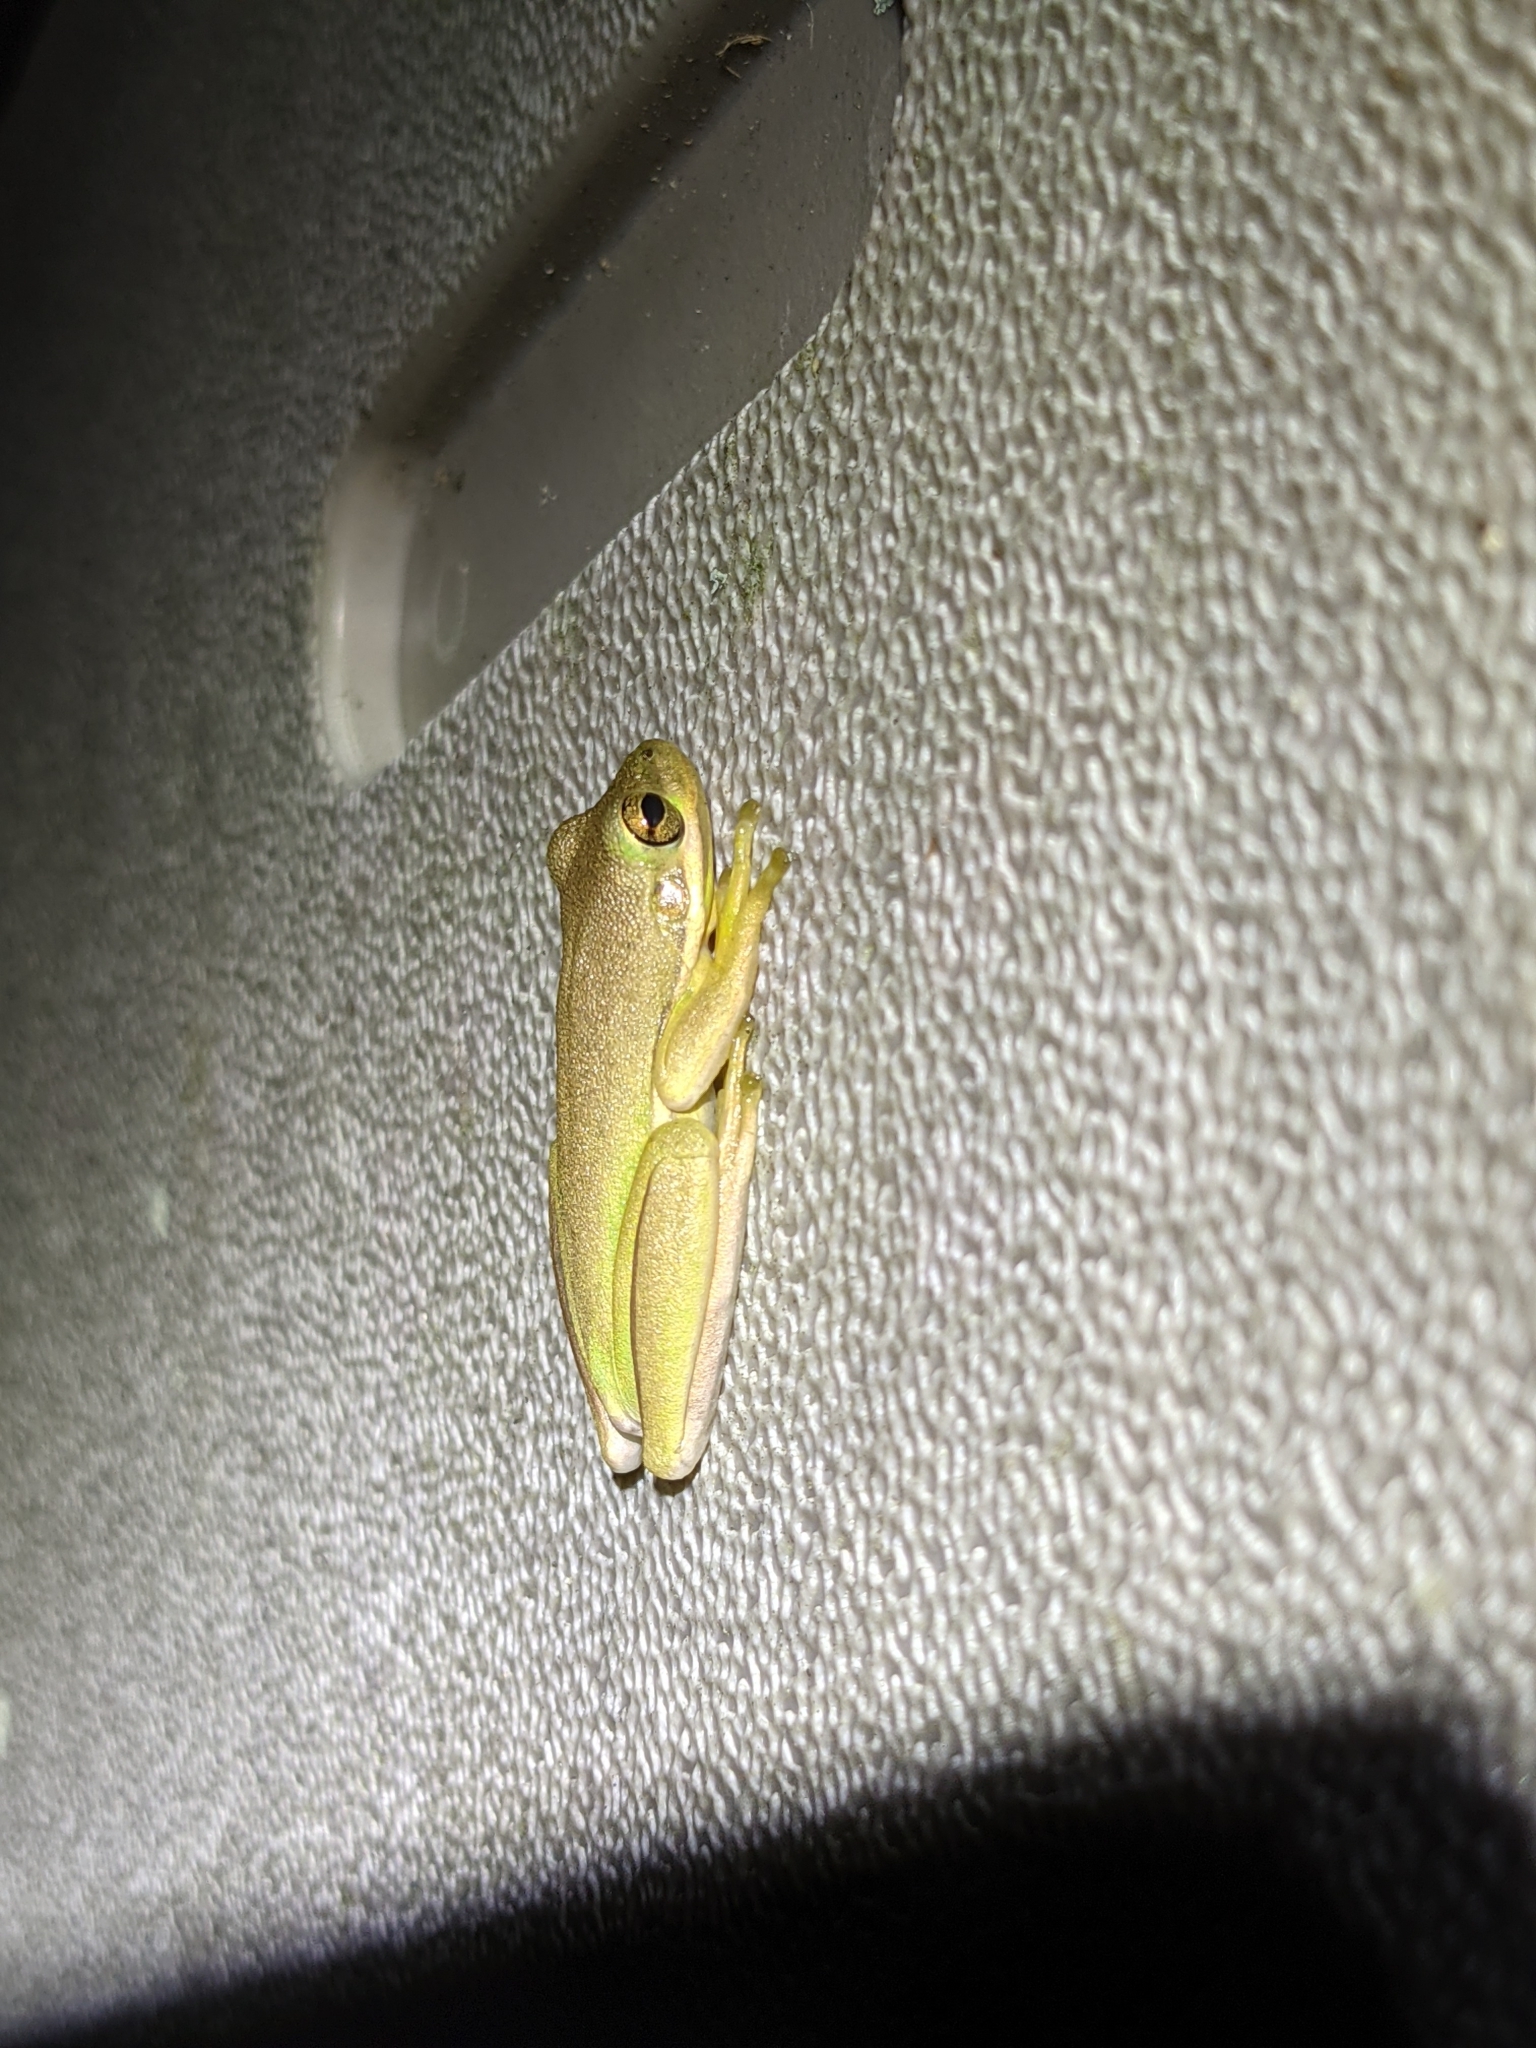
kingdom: Animalia
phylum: Chordata
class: Amphibia
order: Anura
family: Hylidae
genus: Dryophytes
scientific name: Dryophytes cinereus
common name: Green treefrog
